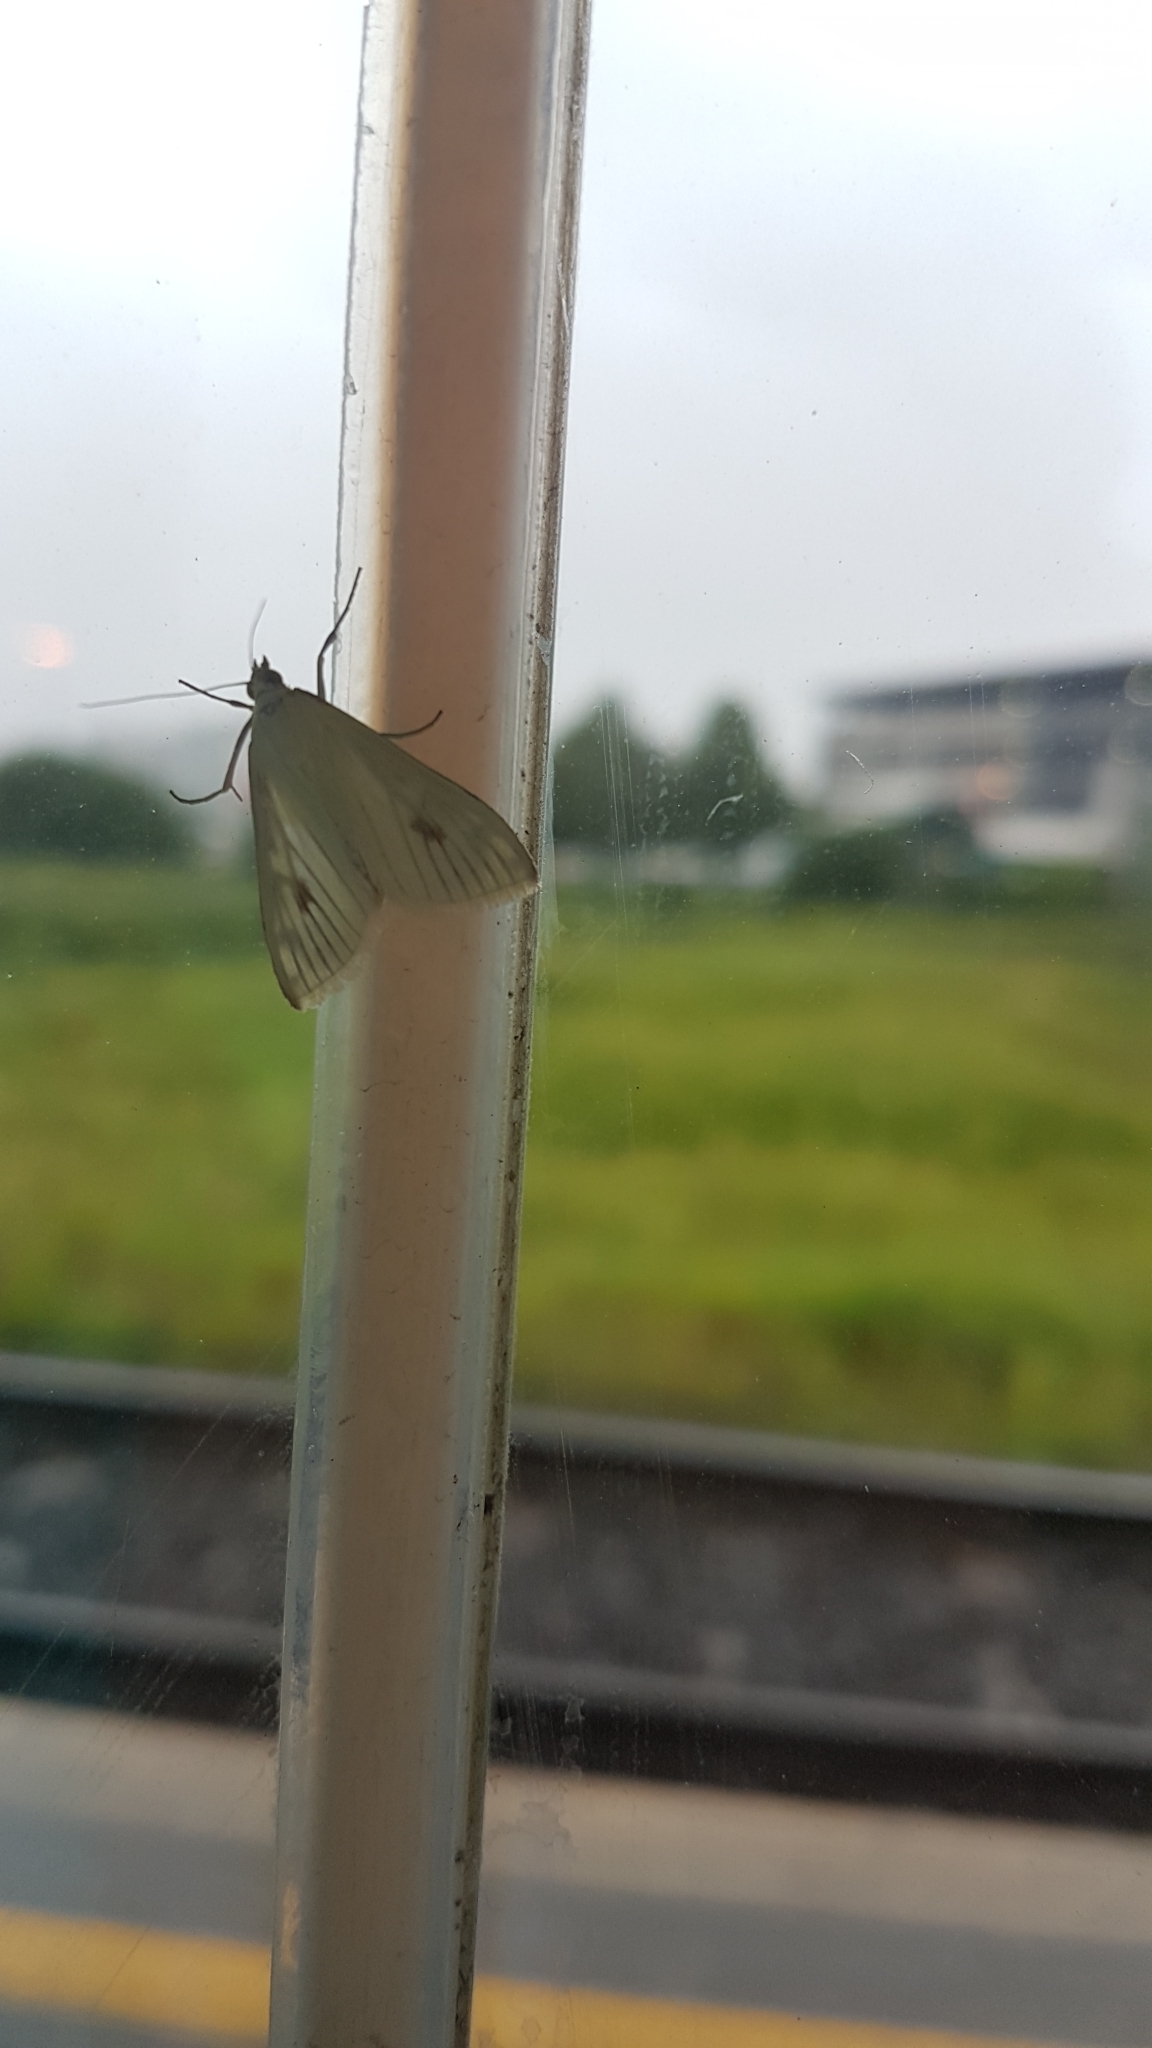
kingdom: Animalia
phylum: Arthropoda
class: Insecta
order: Lepidoptera
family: Crambidae
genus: Sitochroa
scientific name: Sitochroa palealis
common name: Greenish-yellow sitochroa moth
